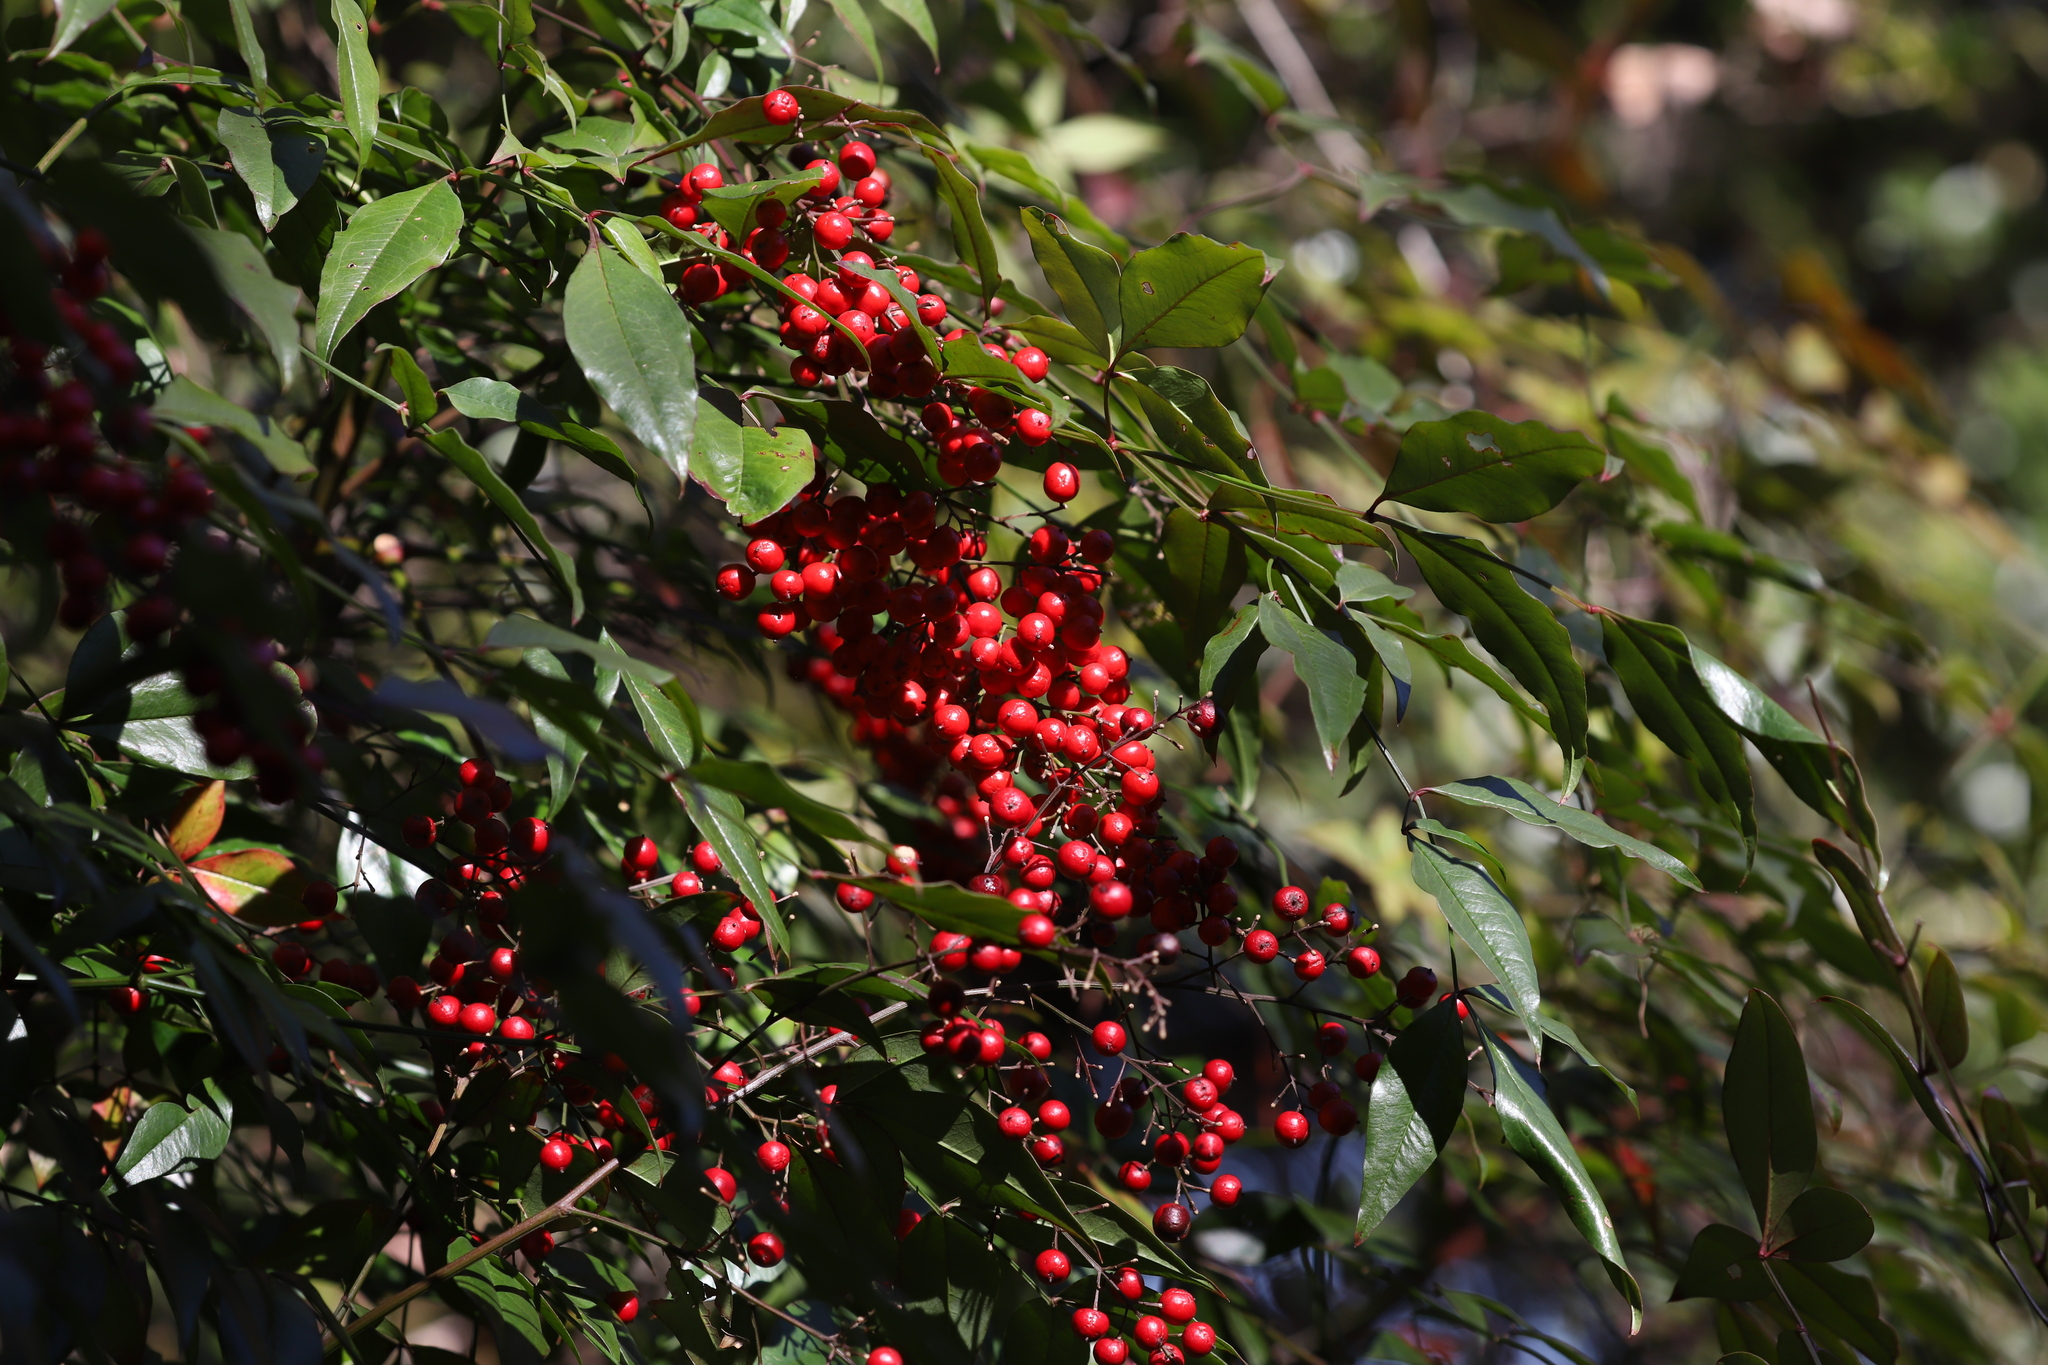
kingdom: Plantae
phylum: Tracheophyta
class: Magnoliopsida
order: Ranunculales
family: Berberidaceae
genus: Nandina
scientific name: Nandina domestica
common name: Sacred bamboo
